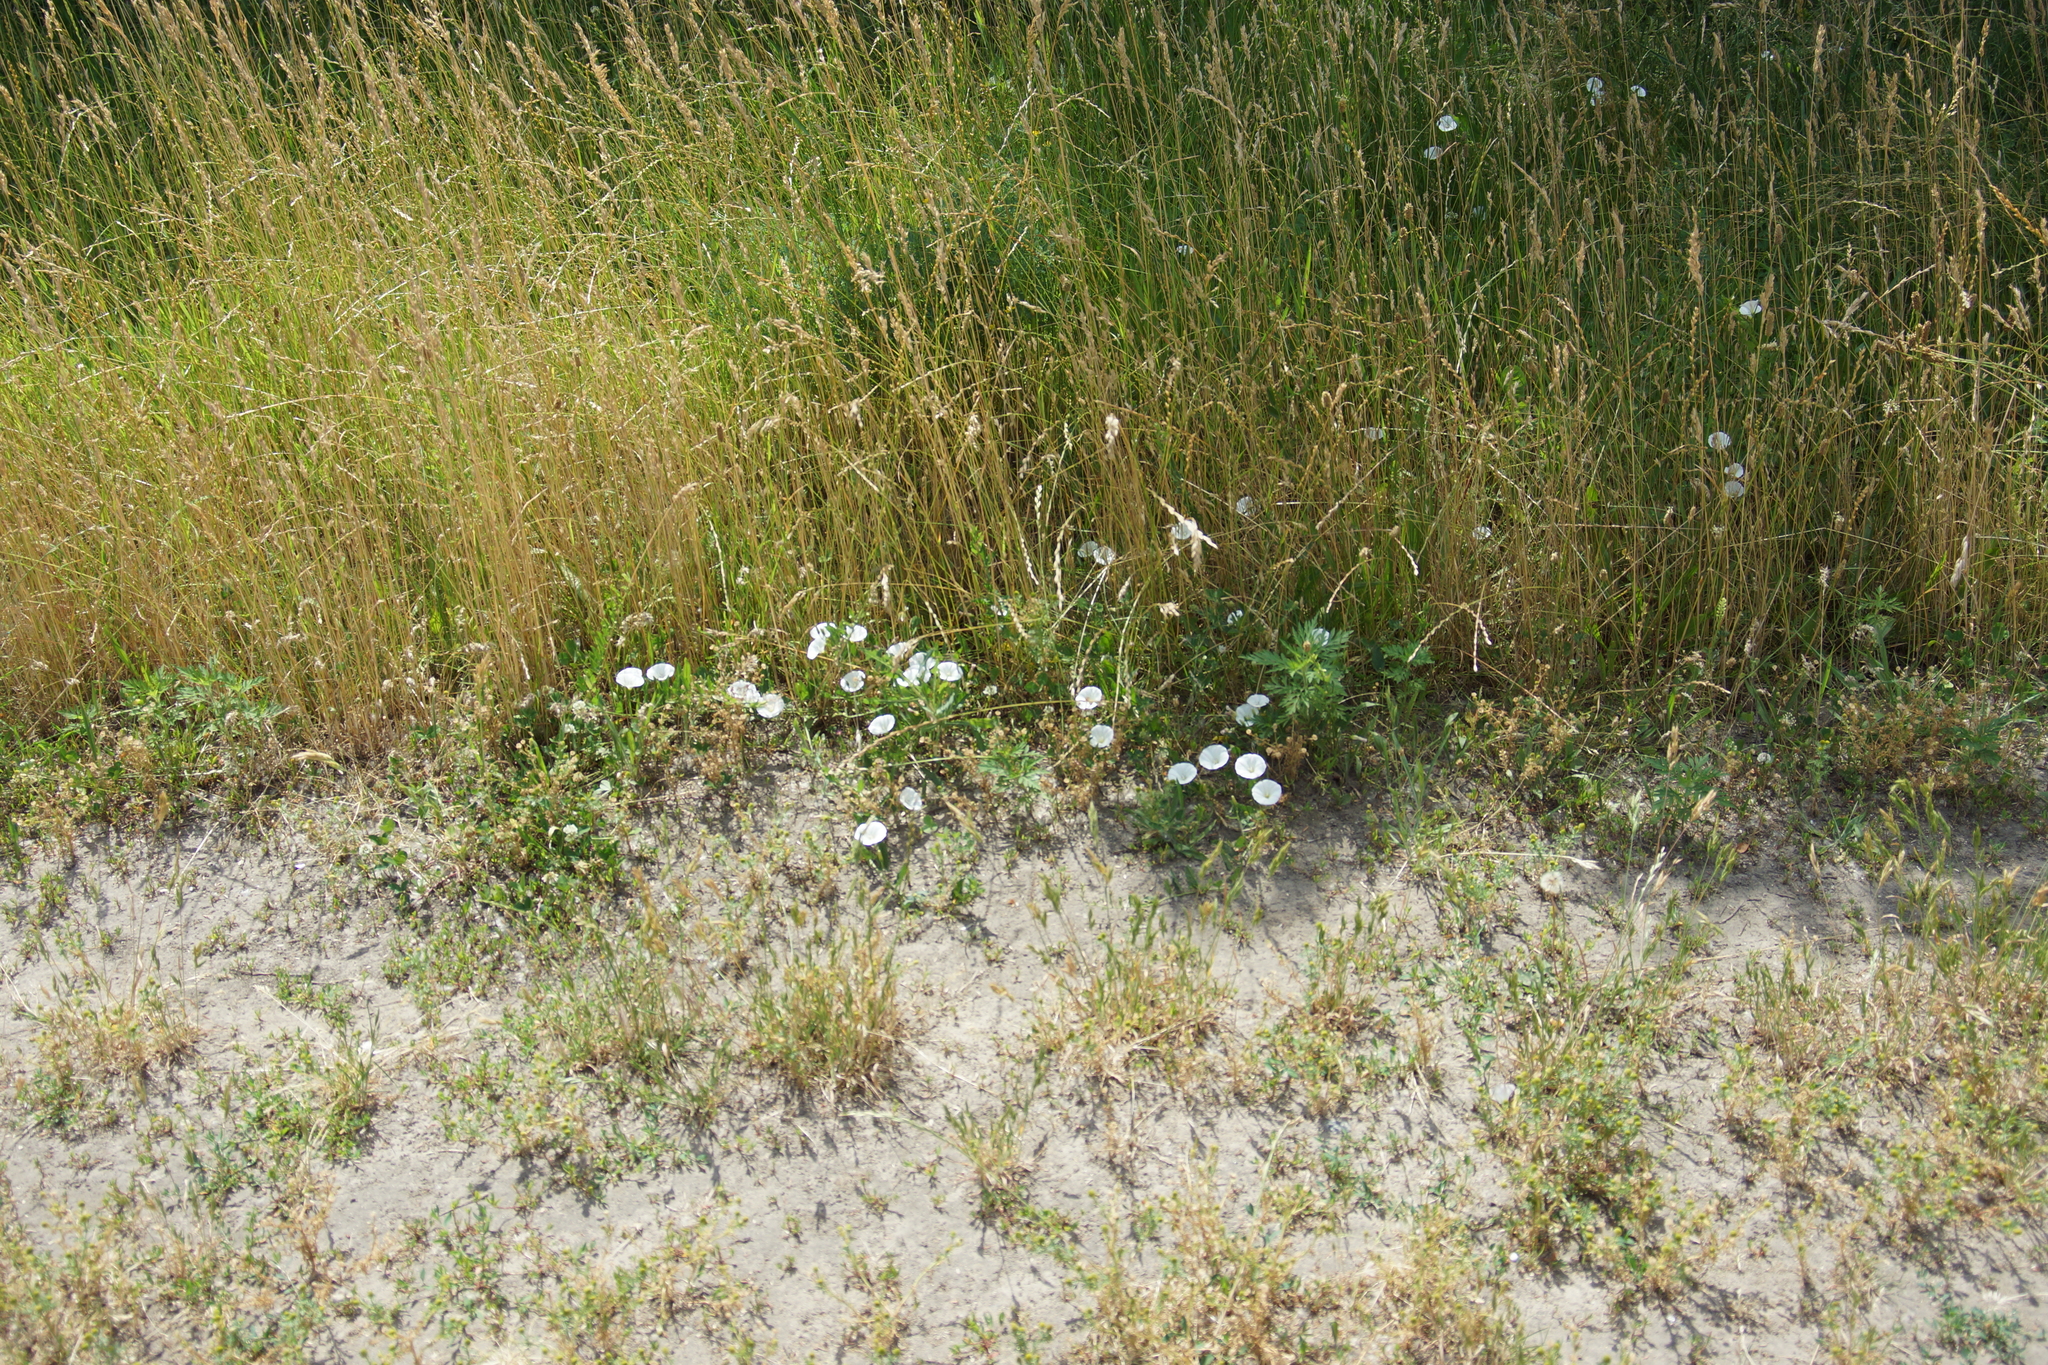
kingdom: Plantae
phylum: Tracheophyta
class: Magnoliopsida
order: Solanales
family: Convolvulaceae
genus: Convolvulus
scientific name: Convolvulus arvensis
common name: Field bindweed
